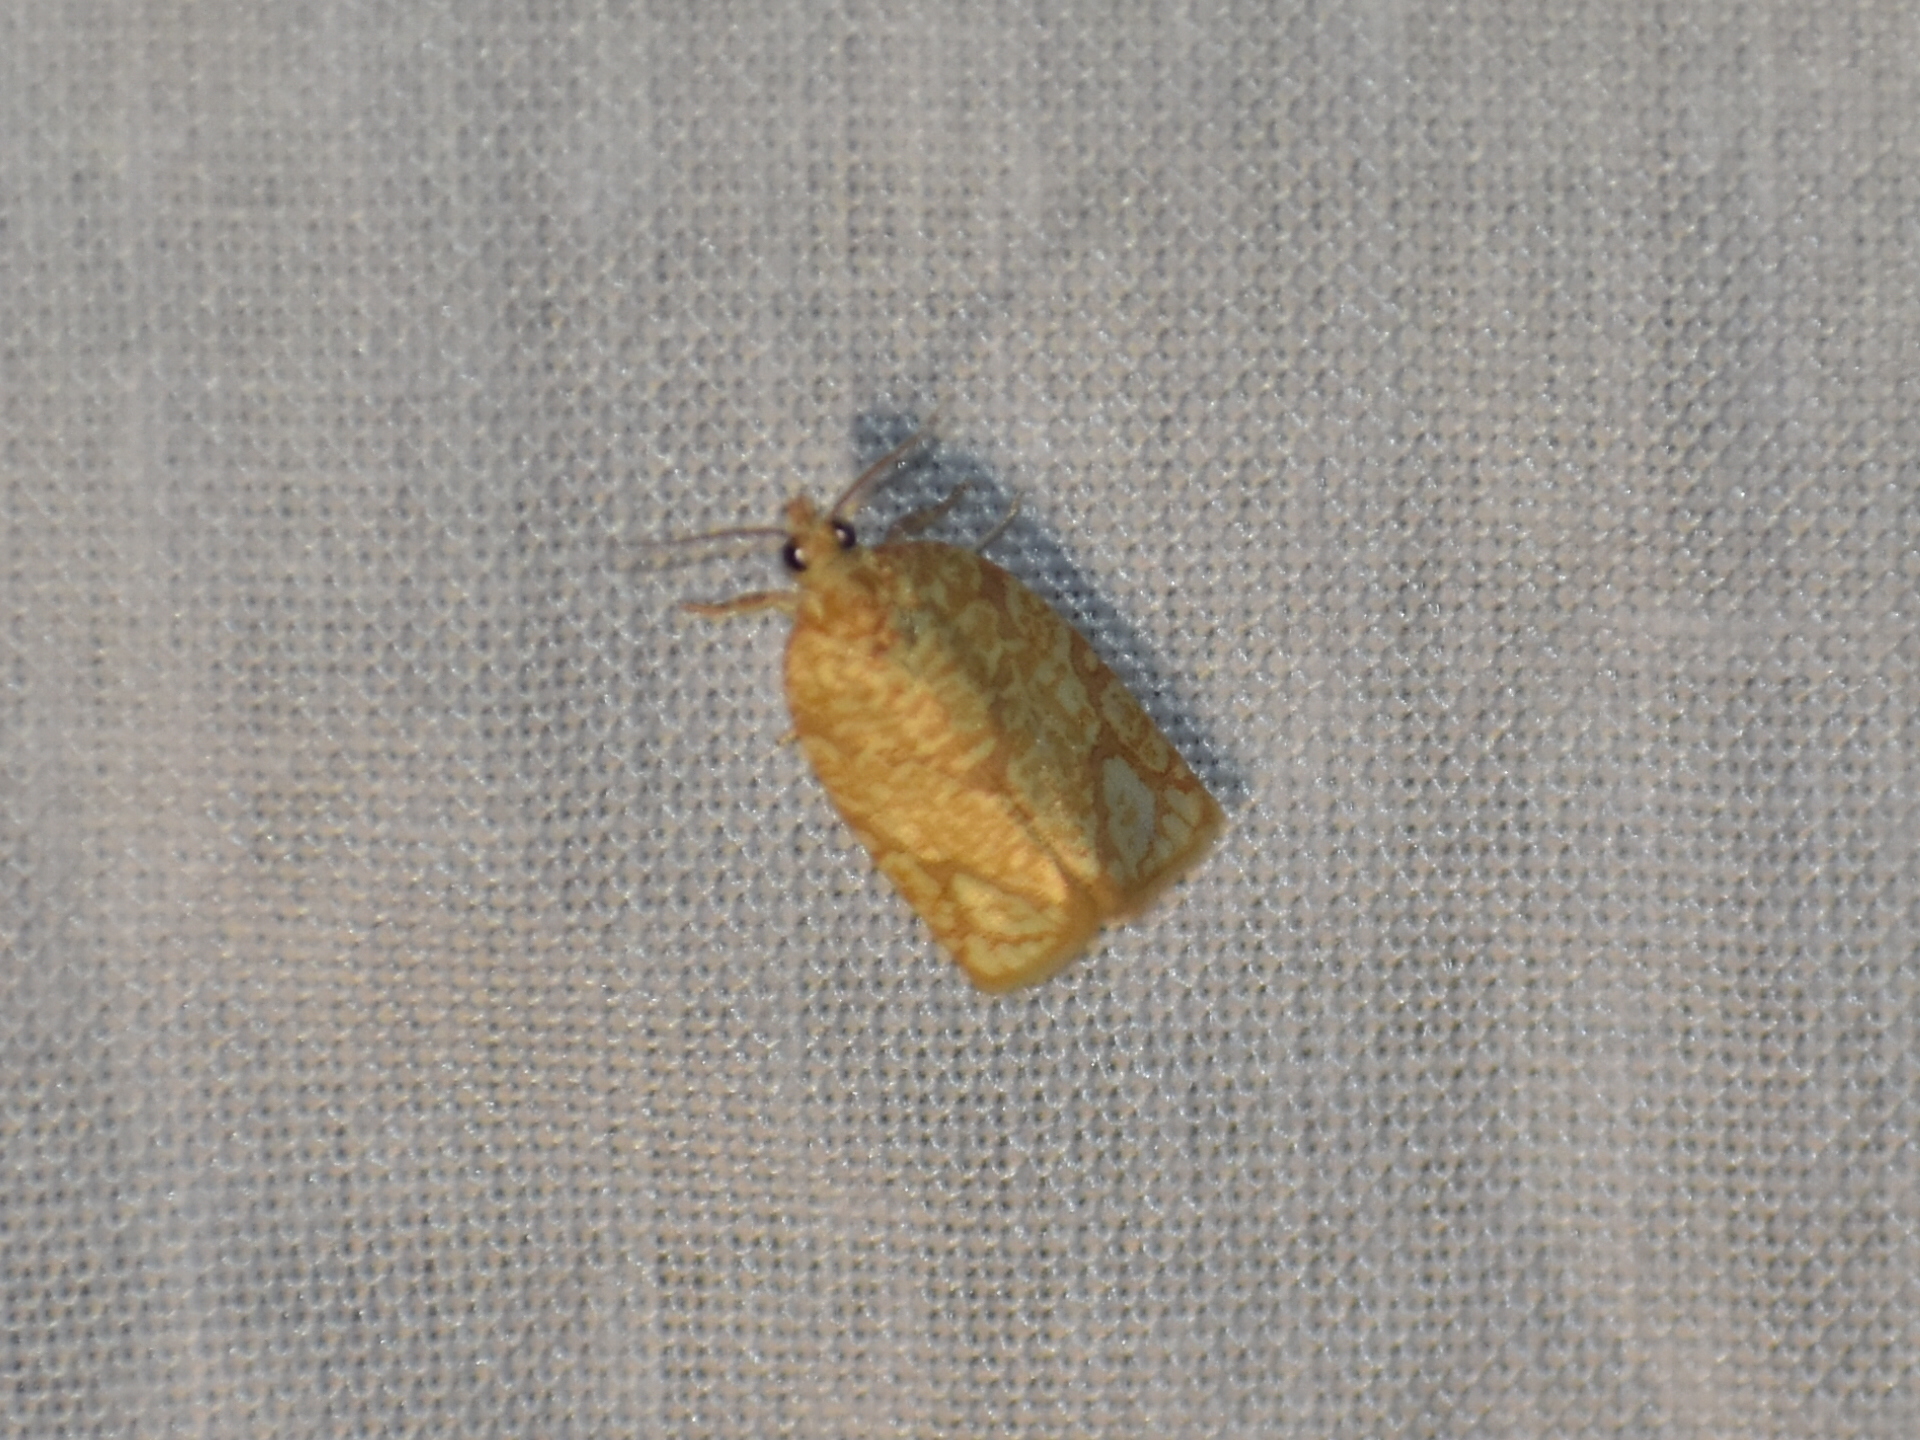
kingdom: Animalia
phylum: Arthropoda
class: Insecta
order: Lepidoptera
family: Tortricidae
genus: Argyrotaenia
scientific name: Argyrotaenia quercifoliana
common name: Yellow-winged oak leafroller moth
